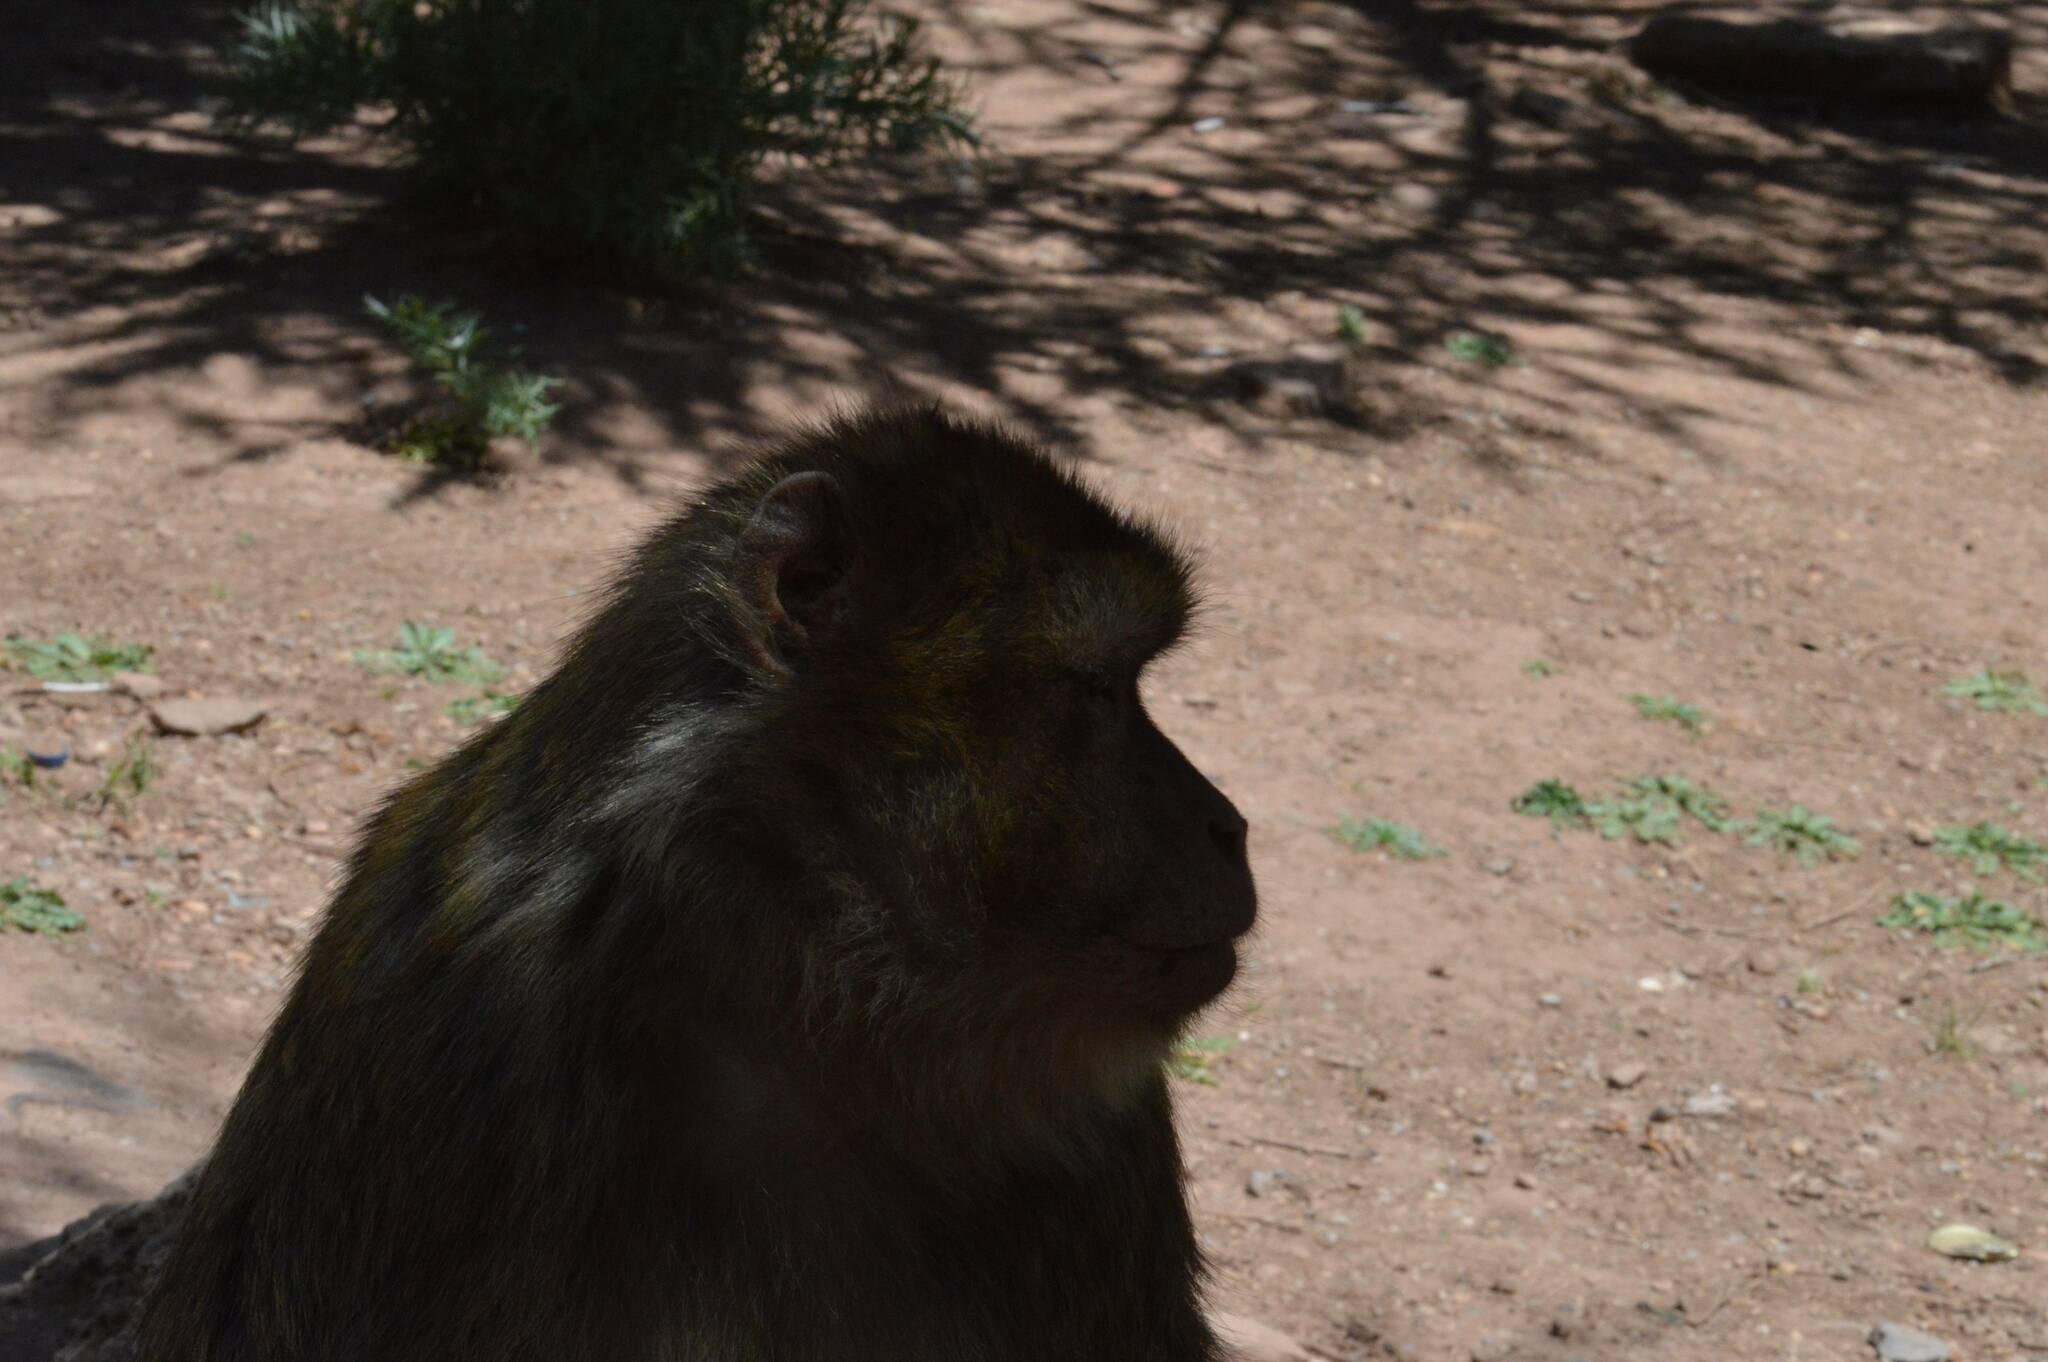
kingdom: Animalia
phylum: Chordata
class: Mammalia
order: Primates
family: Cercopithecidae
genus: Macaca
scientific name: Macaca sylvanus
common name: Barbary macaque
